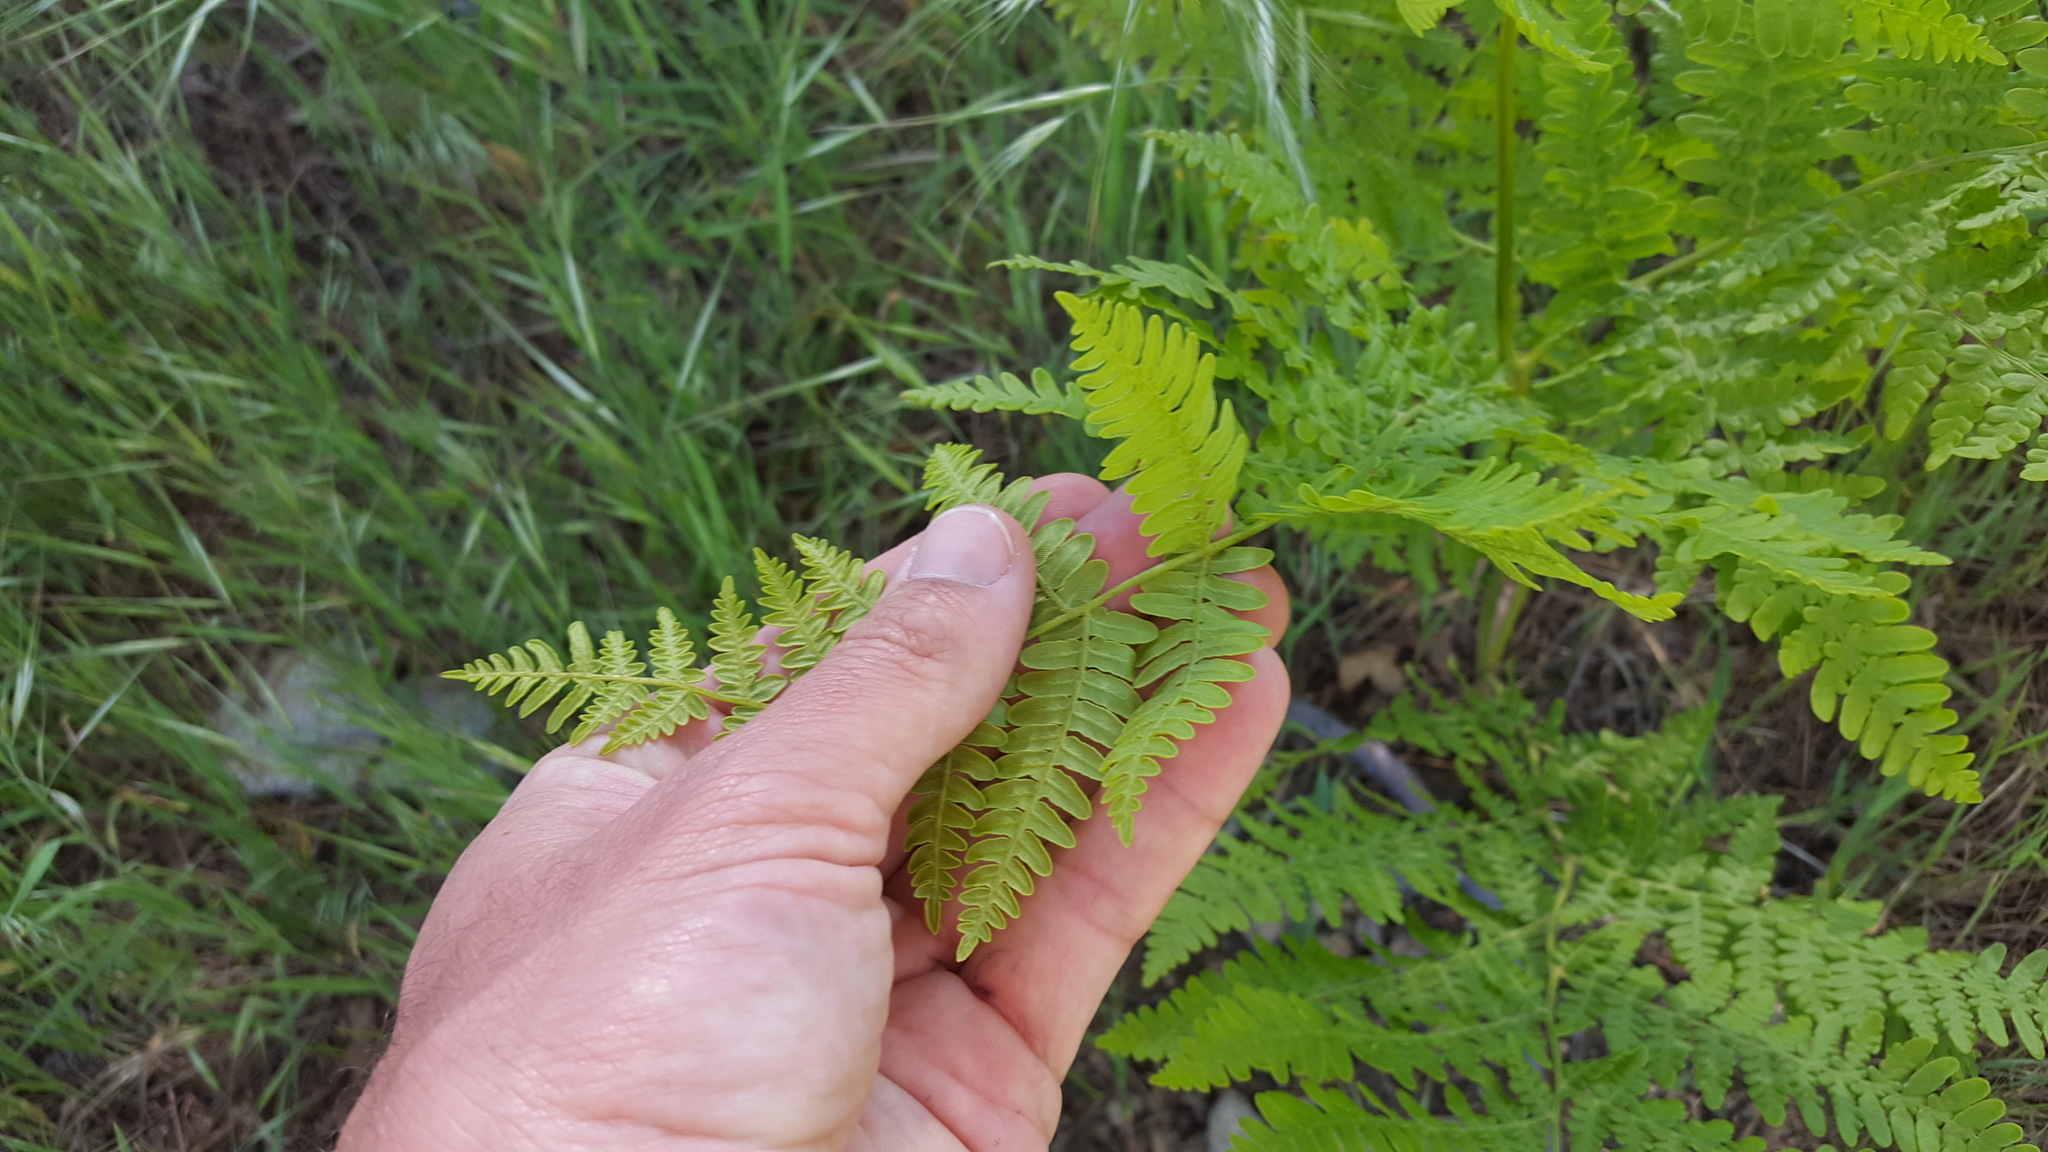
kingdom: Plantae
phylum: Tracheophyta
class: Polypodiopsida
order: Polypodiales
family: Dennstaedtiaceae
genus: Pteridium
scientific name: Pteridium aquilinum
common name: Bracken
